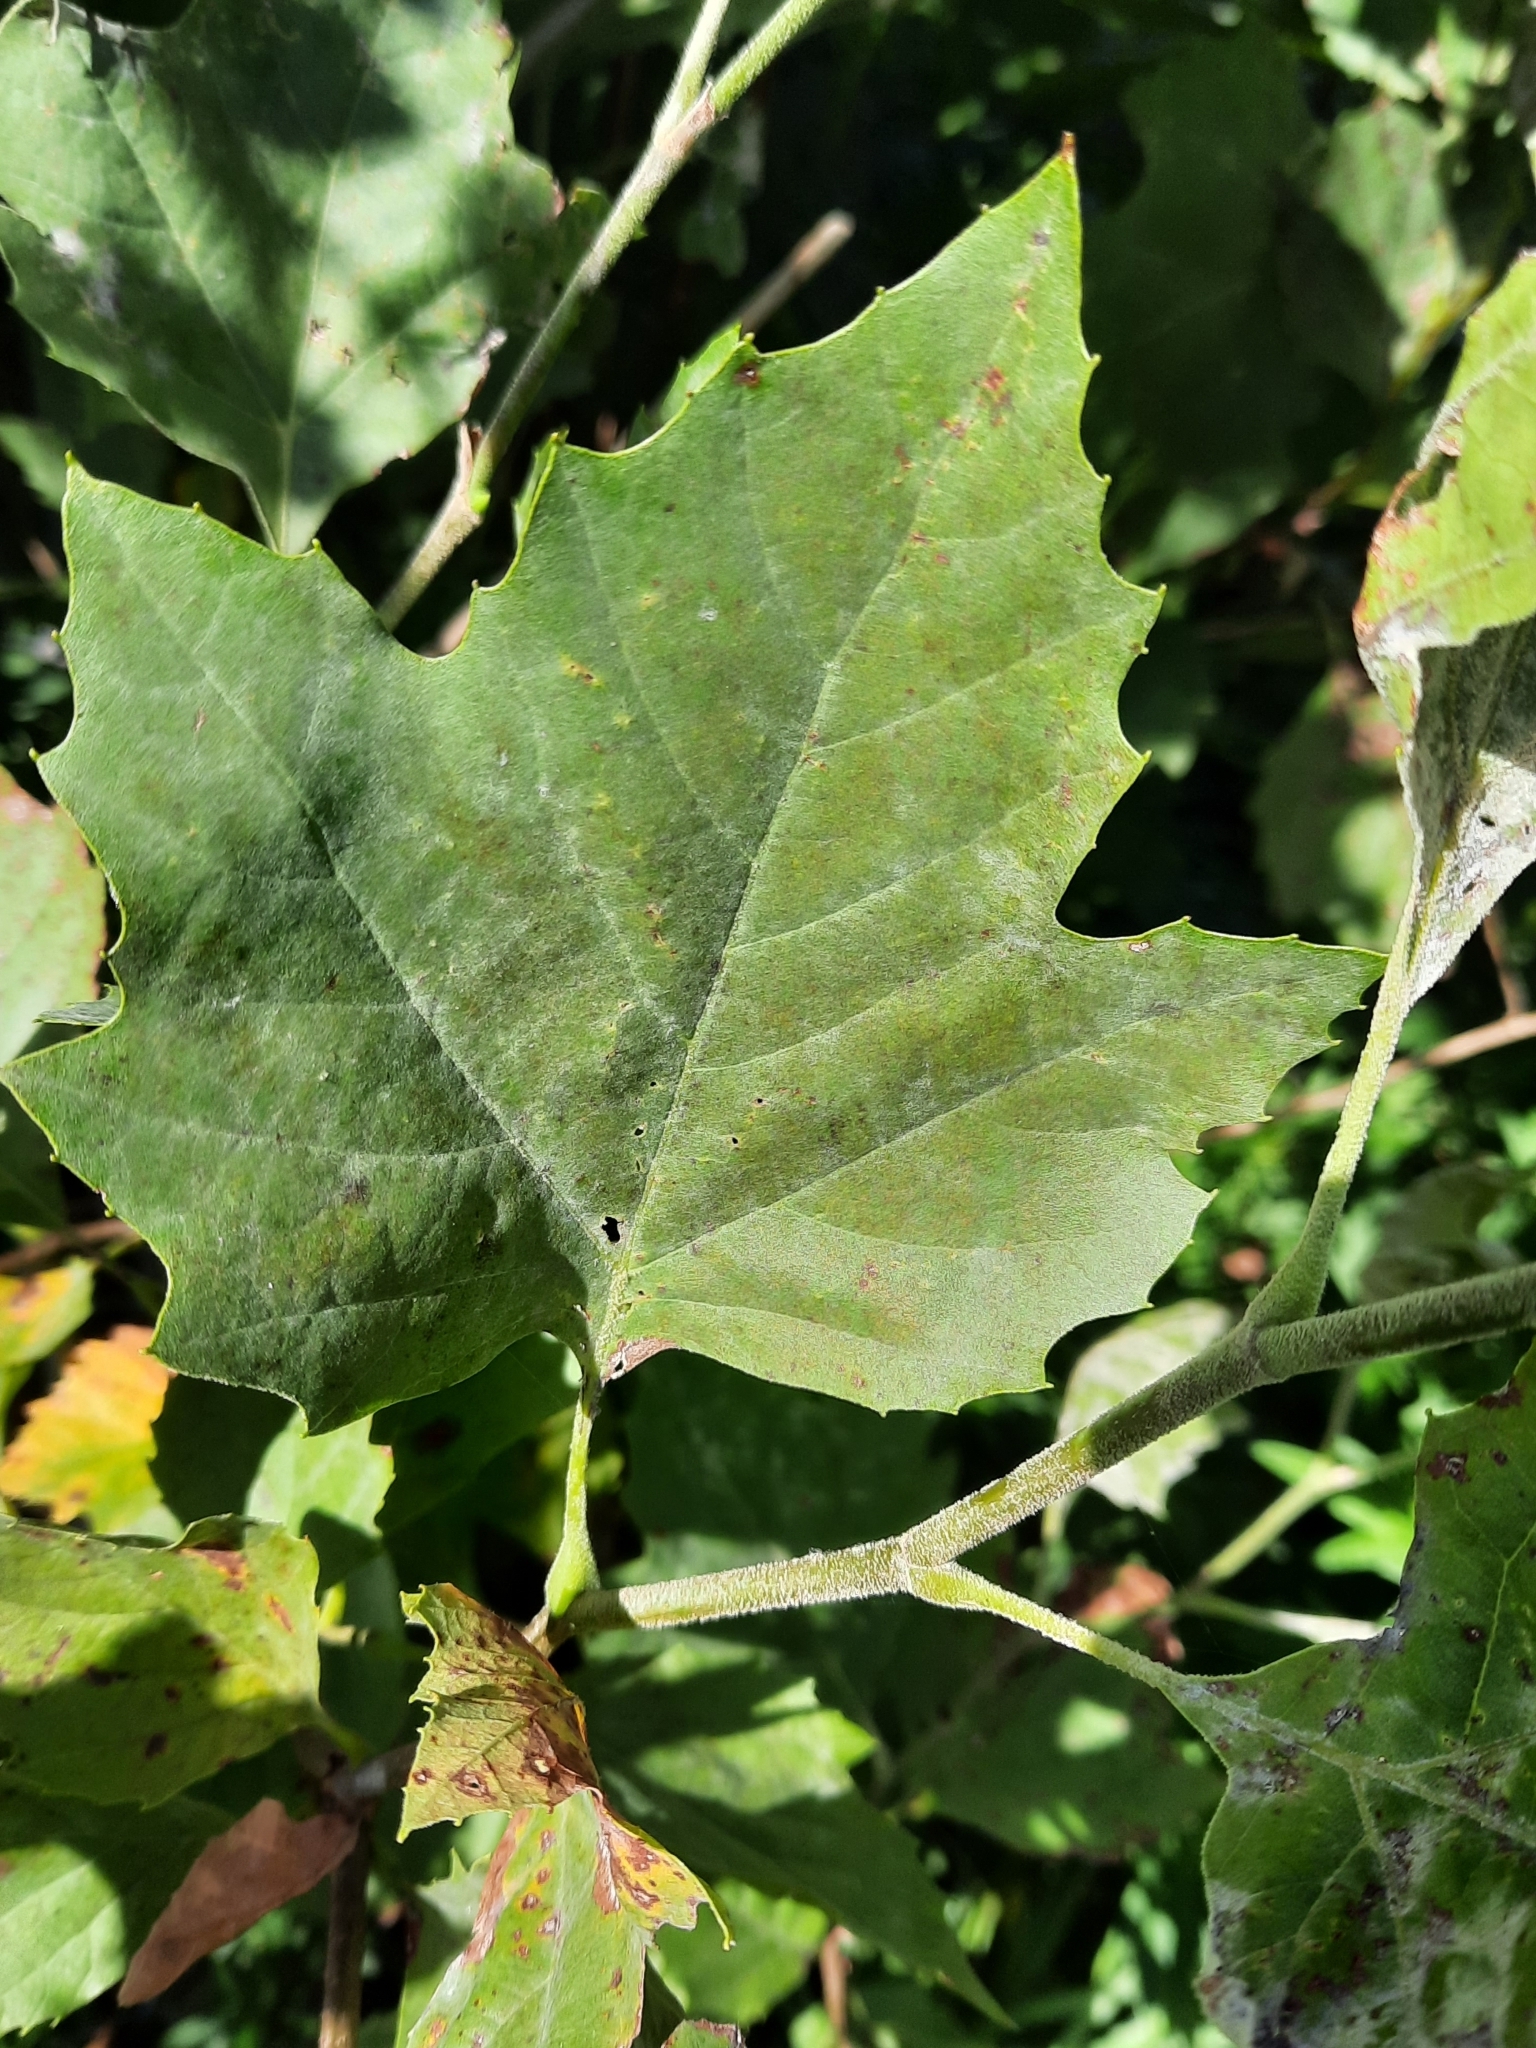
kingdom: Plantae
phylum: Tracheophyta
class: Magnoliopsida
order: Proteales
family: Platanaceae
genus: Platanus
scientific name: Platanus hispanica
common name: London plane
